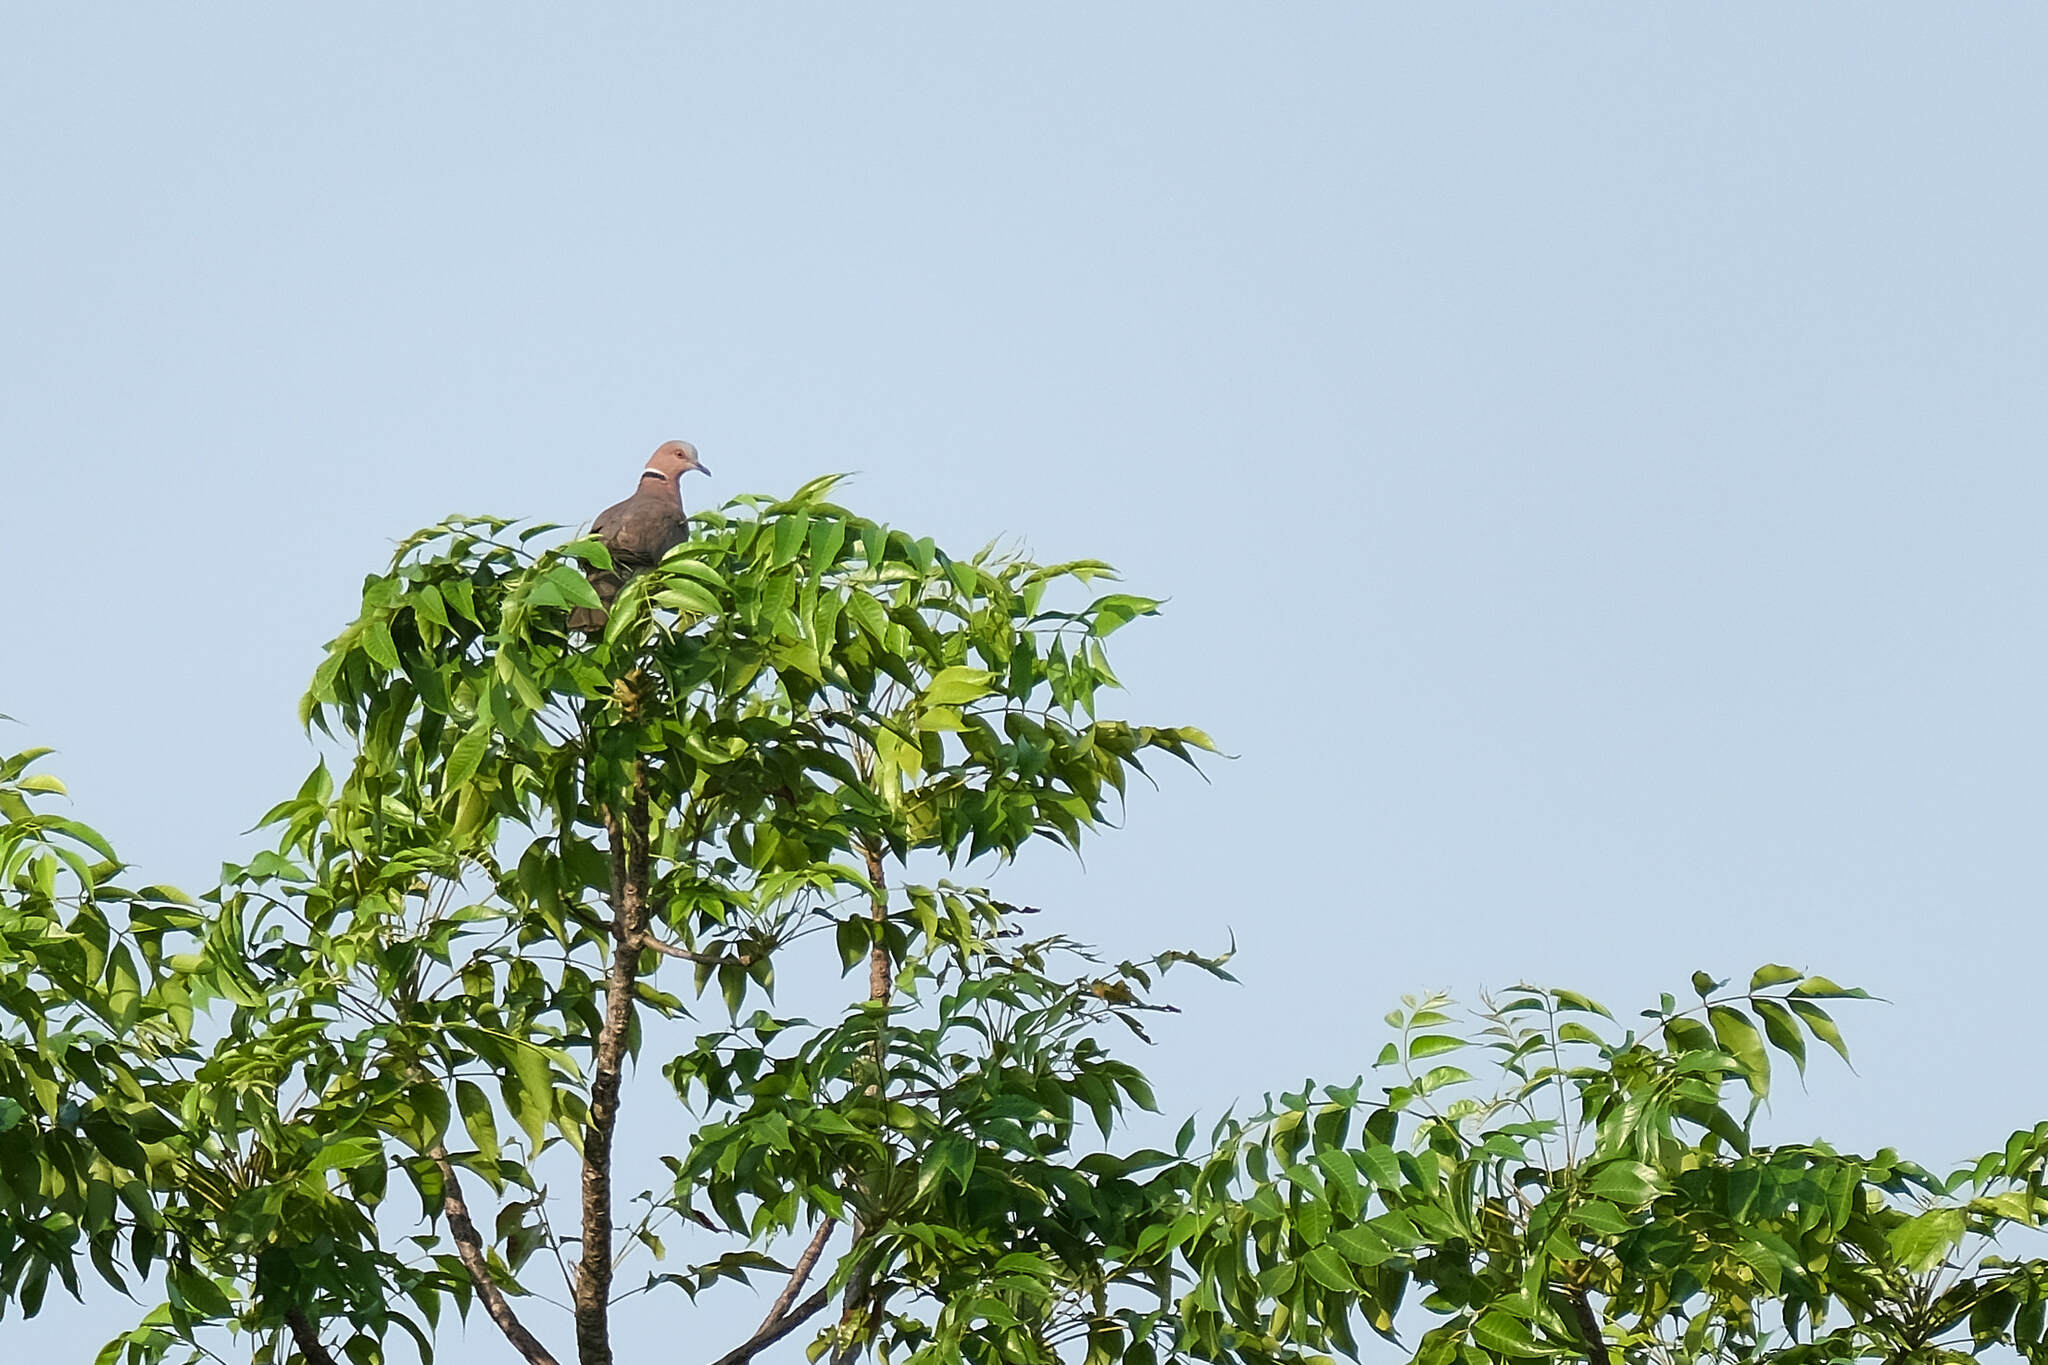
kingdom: Animalia
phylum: Chordata
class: Aves
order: Columbiformes
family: Columbidae
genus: Streptopelia
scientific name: Streptopelia bitorquata
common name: Island collared dove
